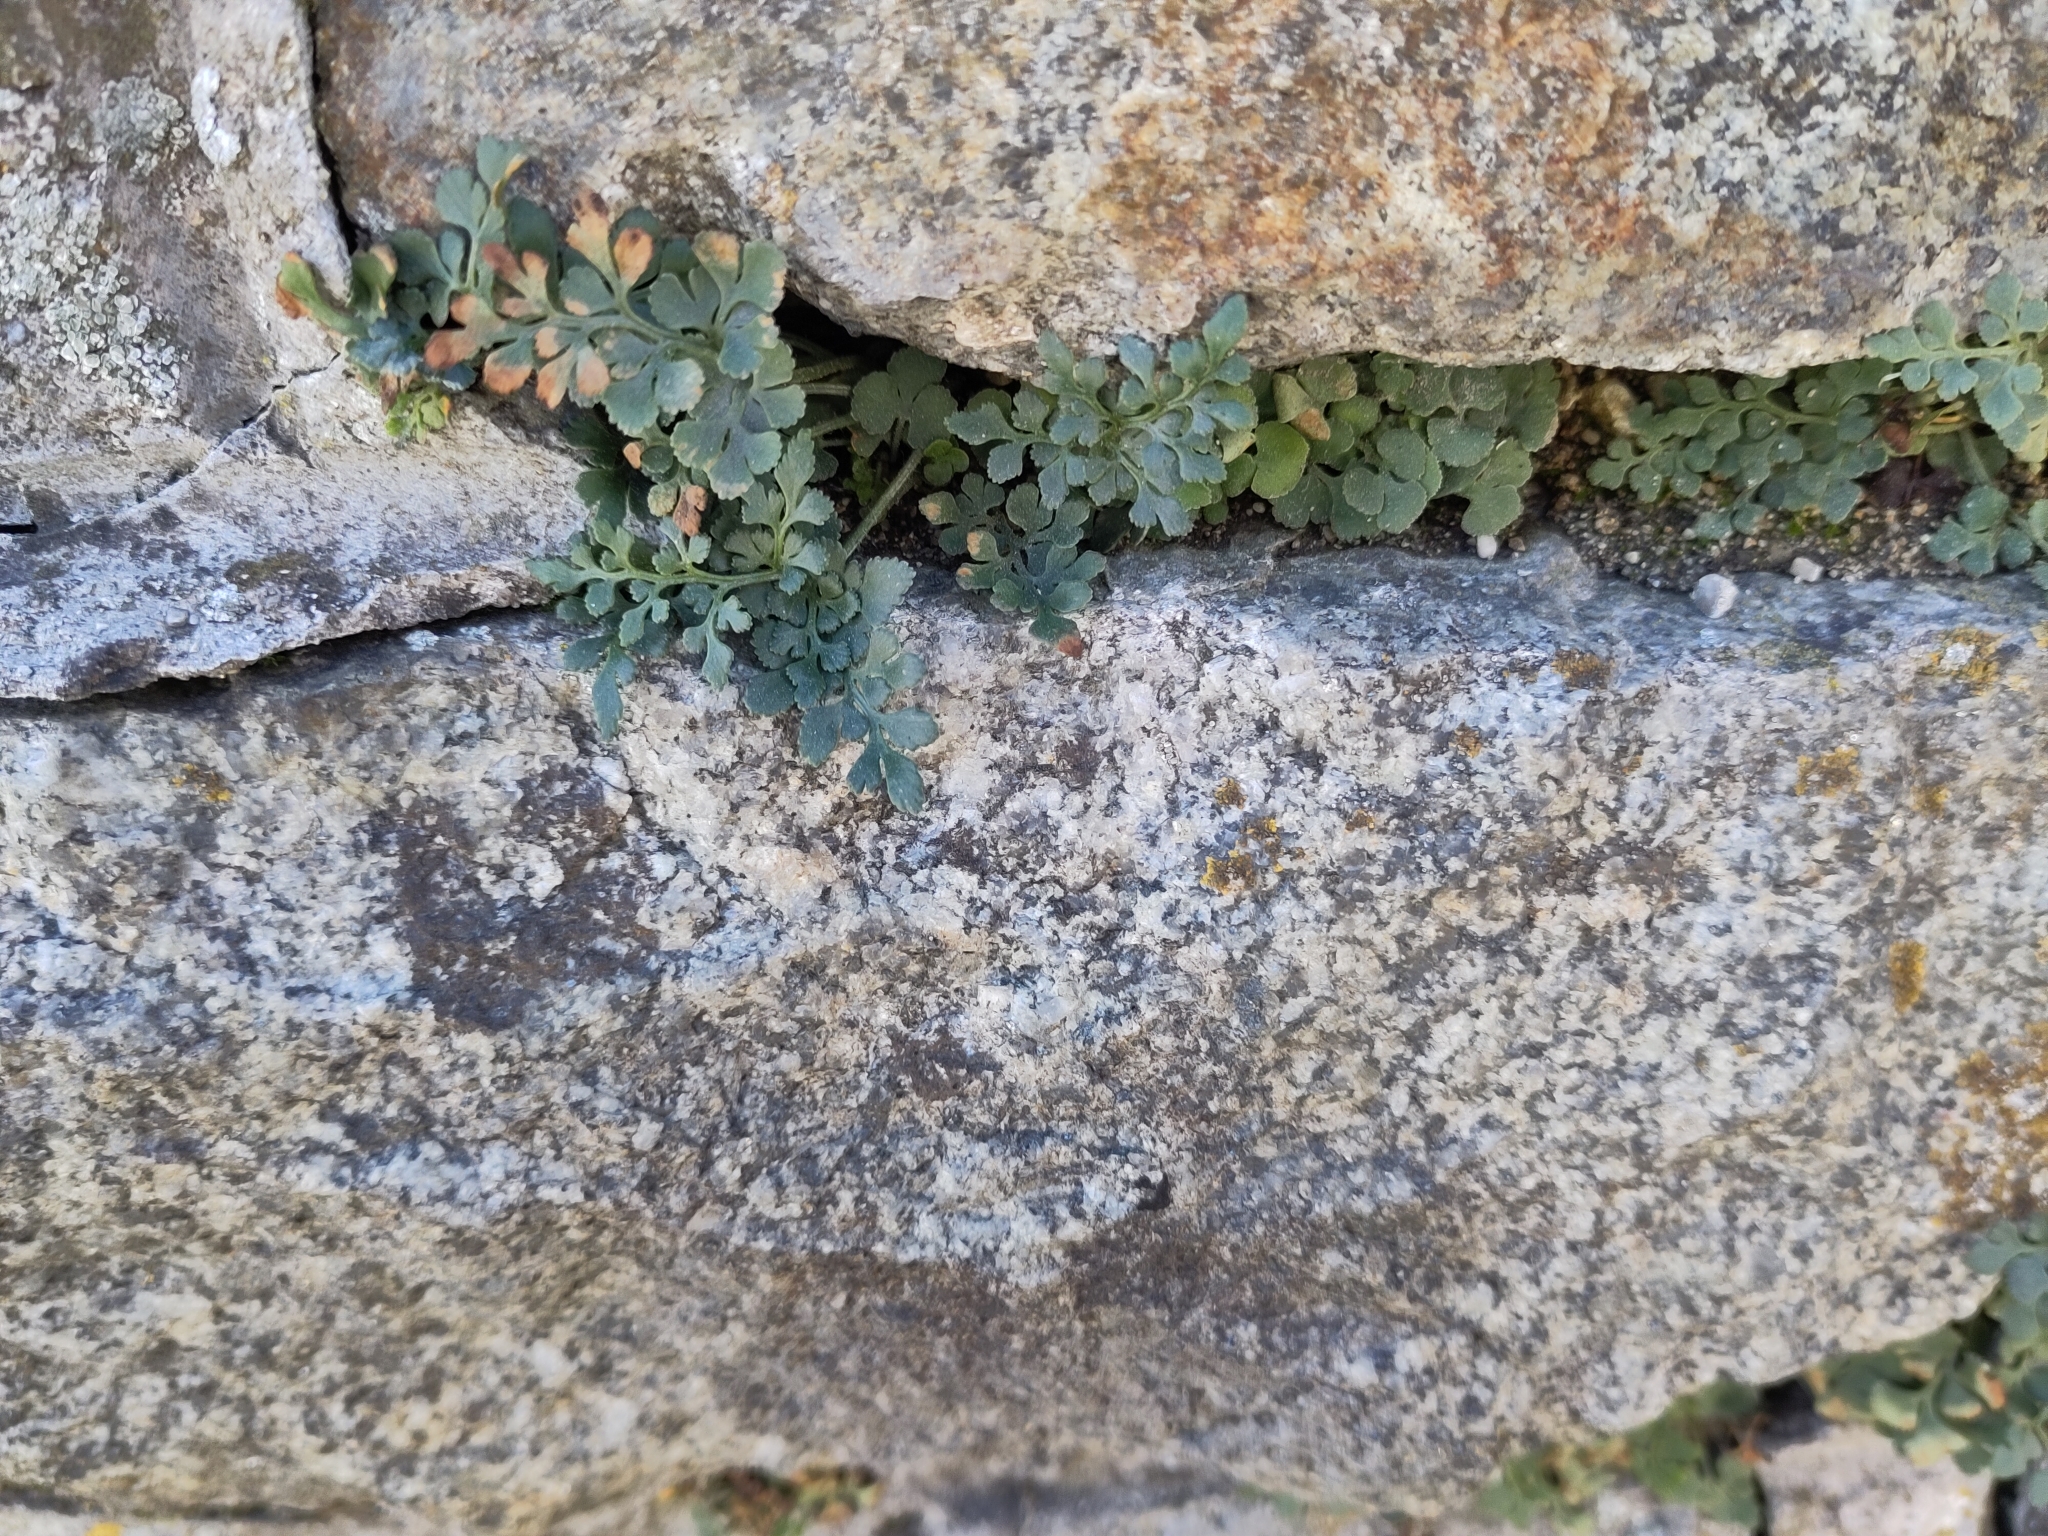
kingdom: Plantae
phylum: Tracheophyta
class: Polypodiopsida
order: Polypodiales
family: Aspleniaceae
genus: Asplenium
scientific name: Asplenium ruta-muraria
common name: Wall-rue
